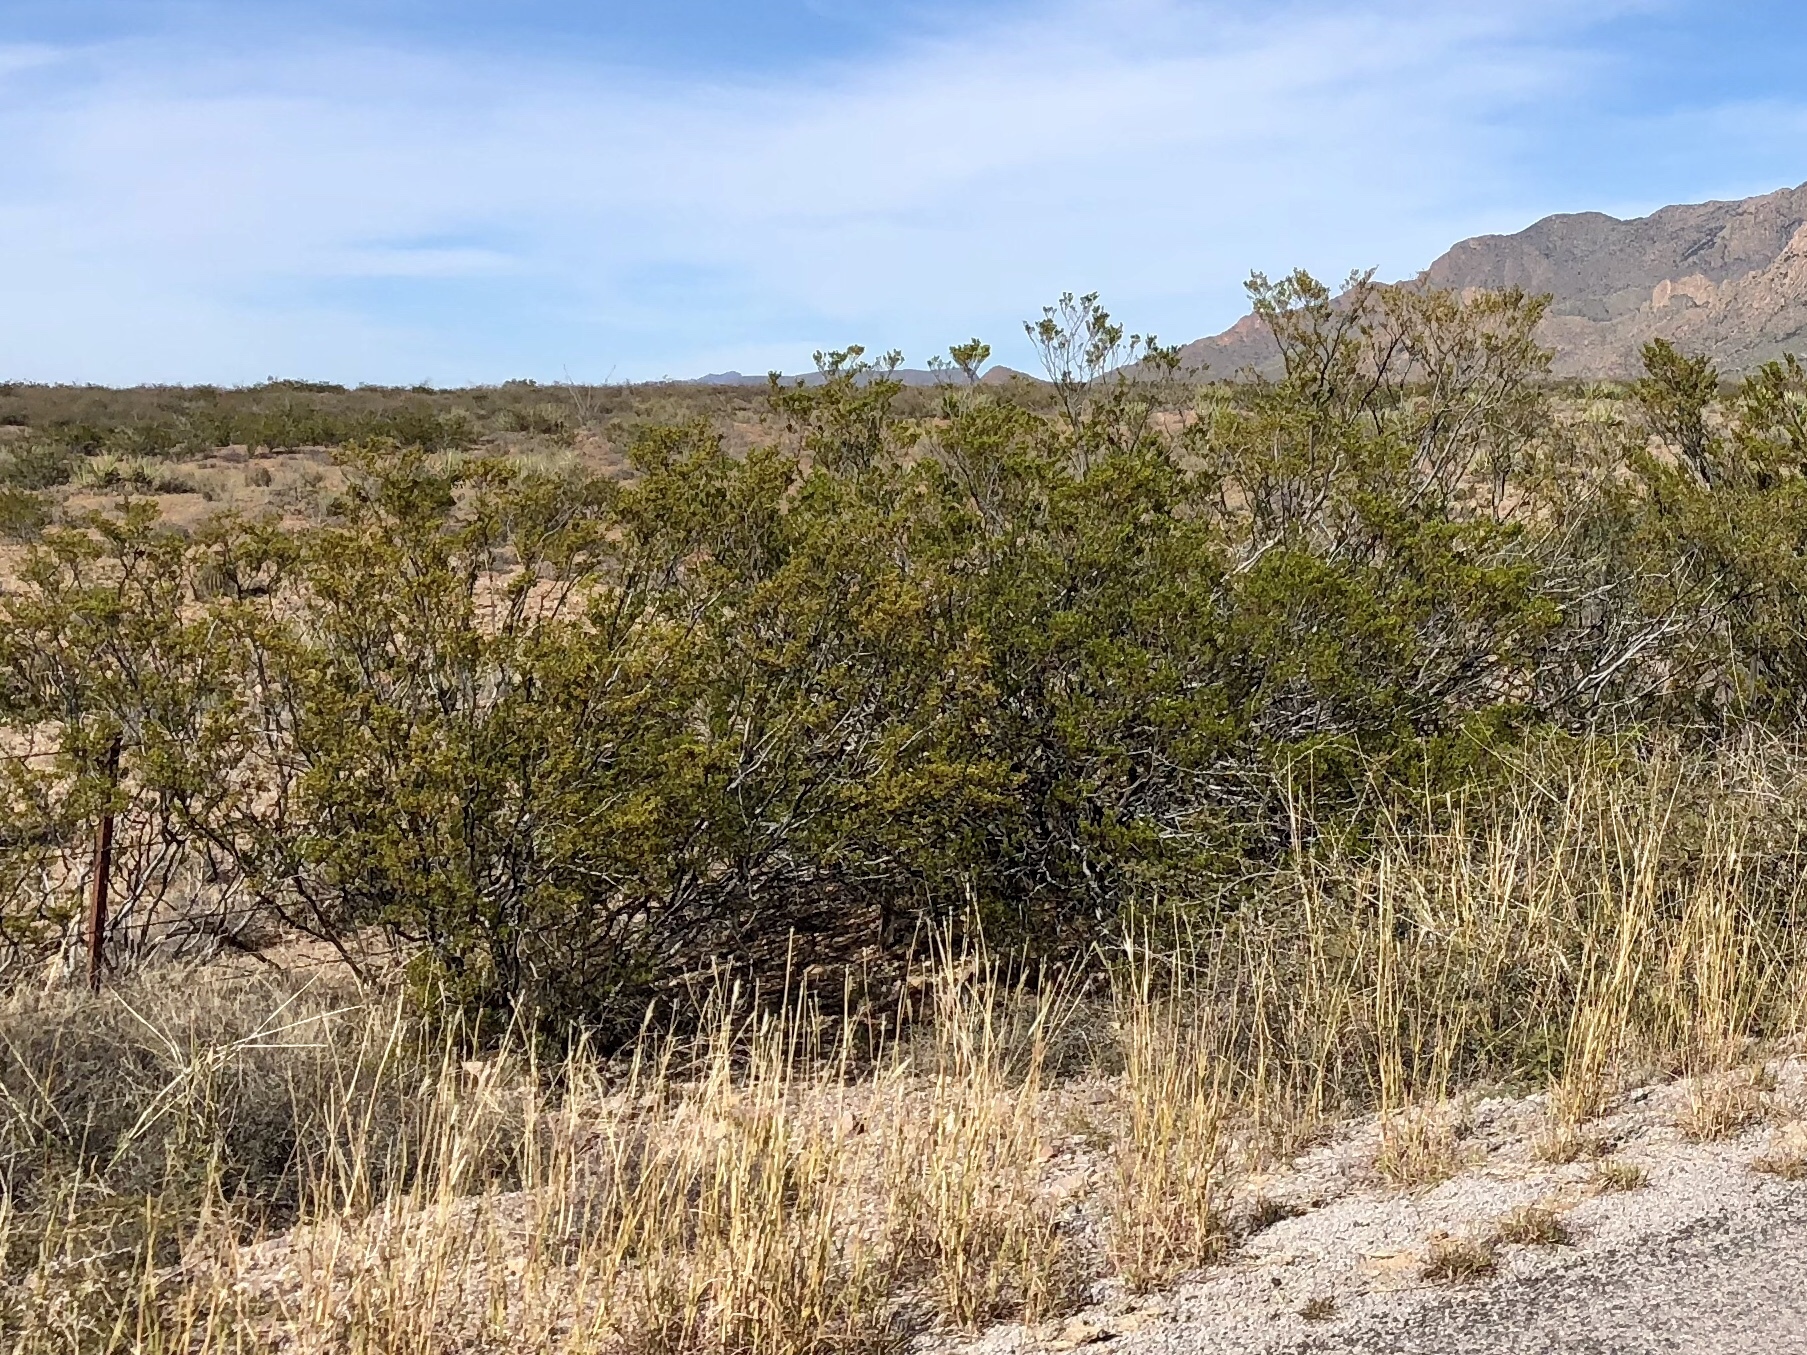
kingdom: Plantae
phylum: Tracheophyta
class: Magnoliopsida
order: Zygophyllales
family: Zygophyllaceae
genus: Larrea
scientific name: Larrea tridentata
